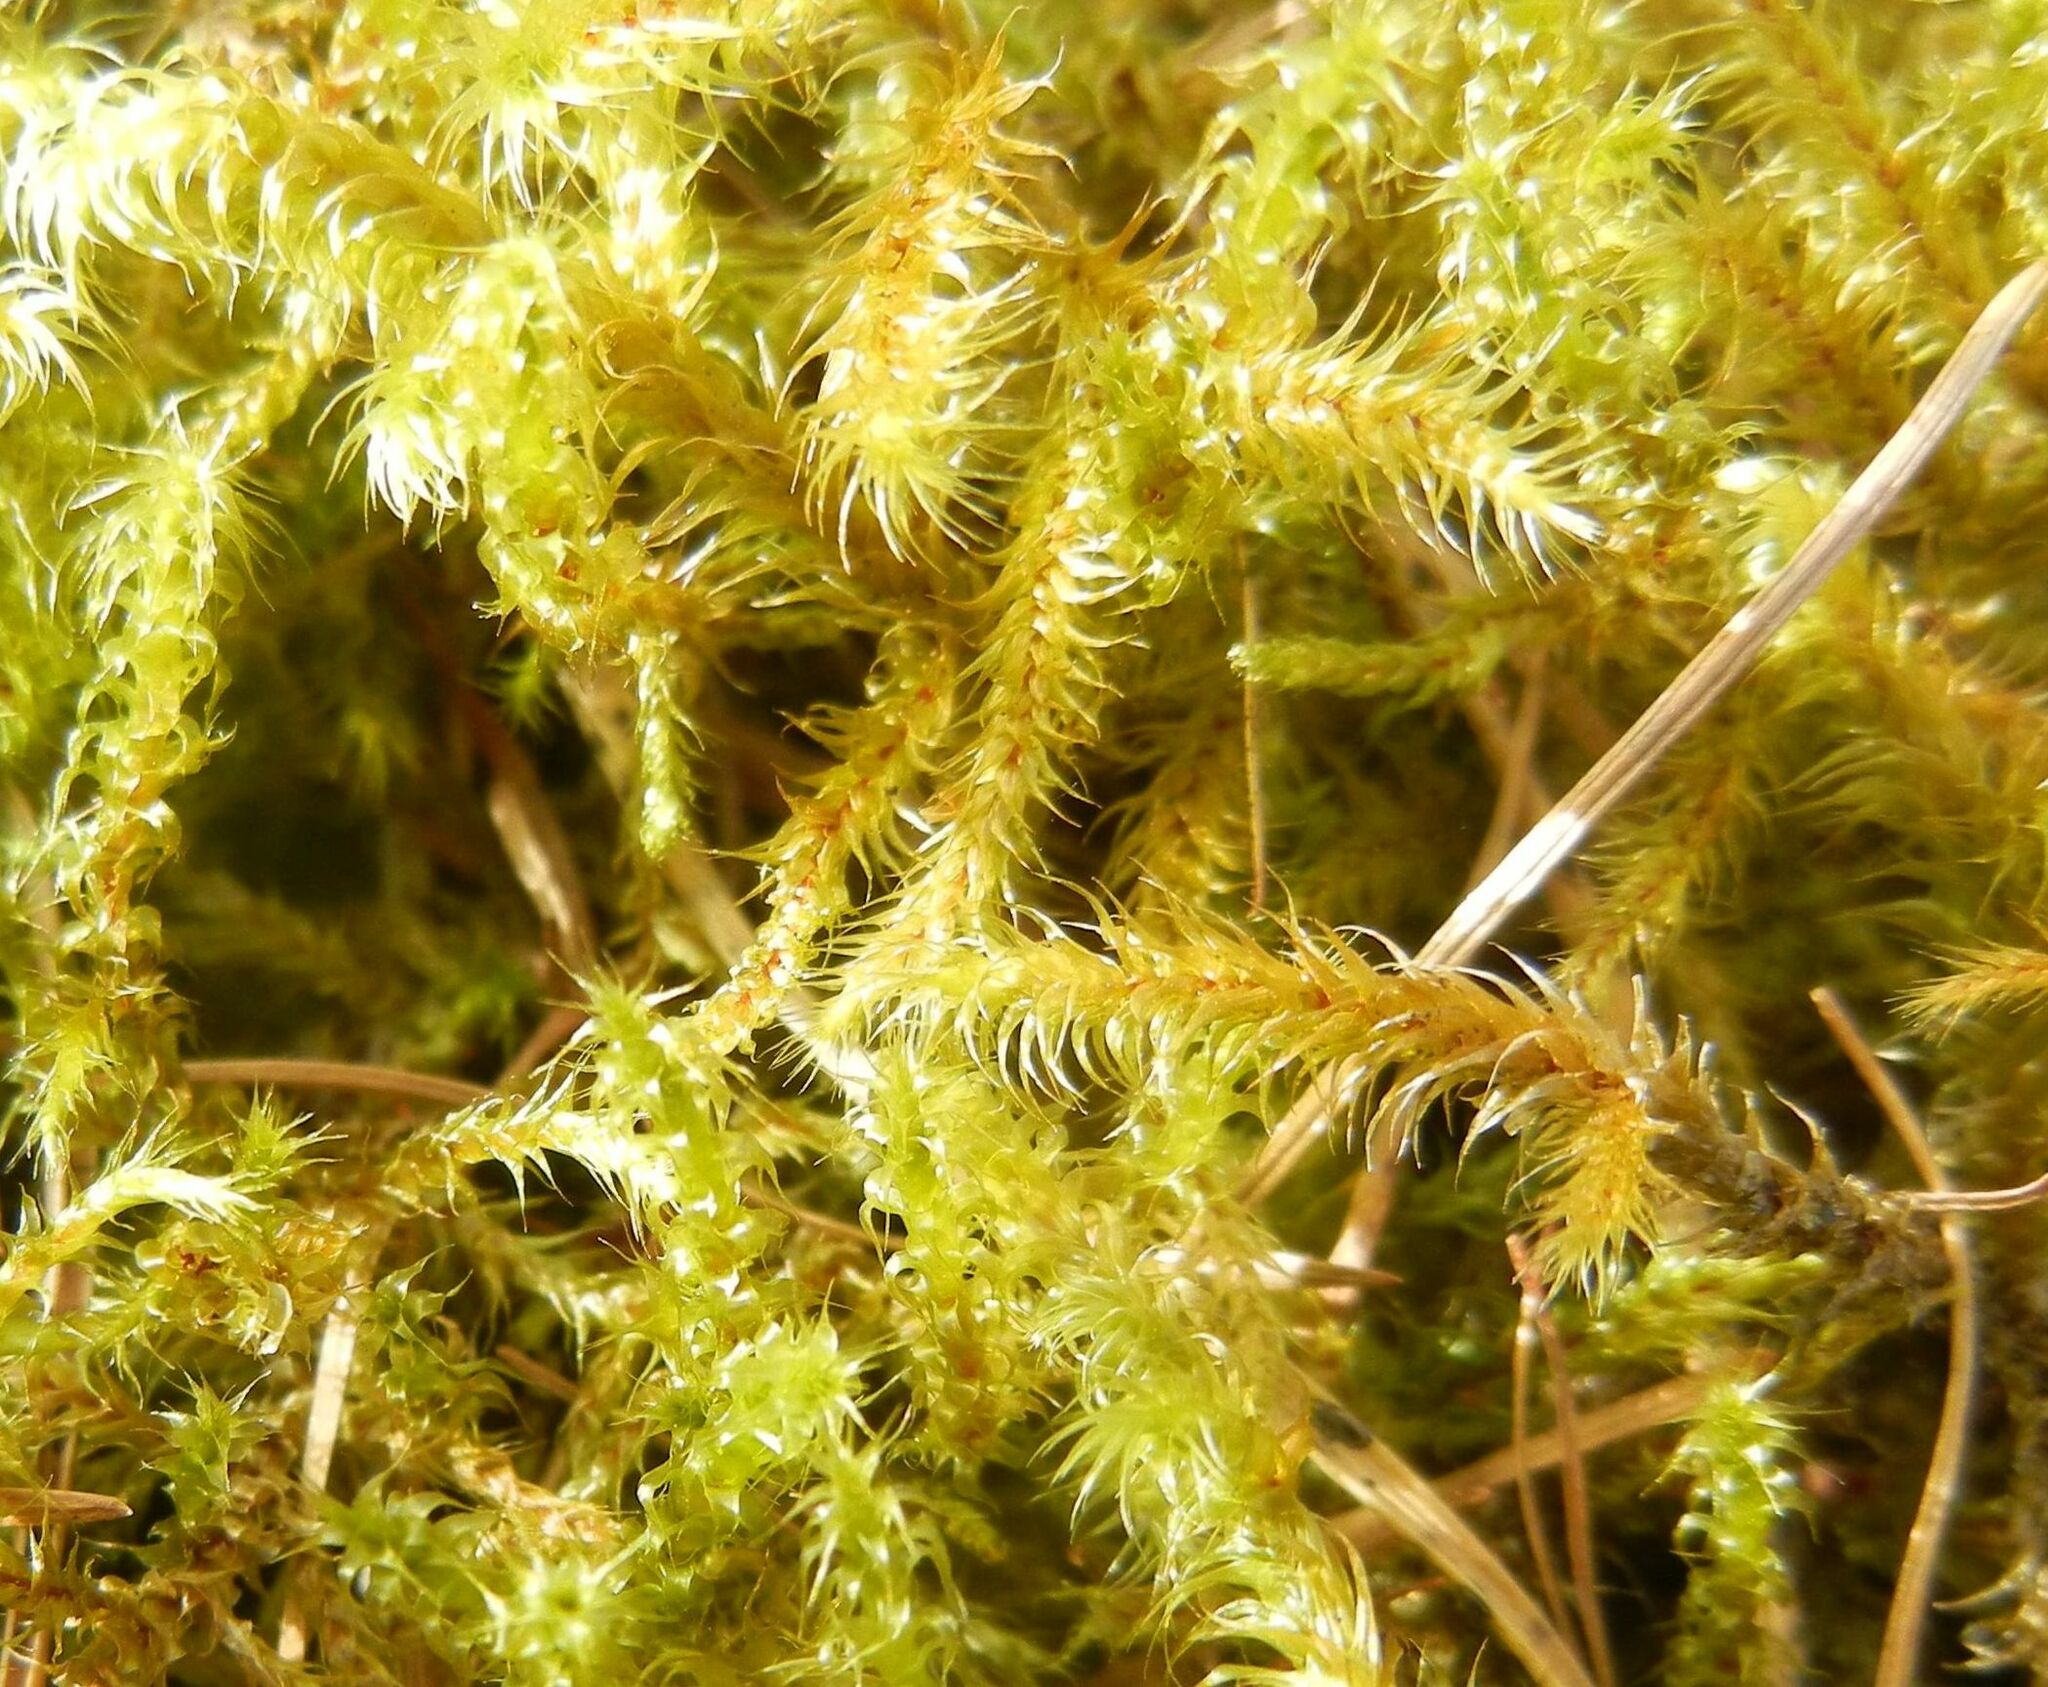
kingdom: Plantae
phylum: Bryophyta
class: Bryopsida
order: Hypnales
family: Hylocomiaceae
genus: Rhytidiadelphus
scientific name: Rhytidiadelphus loreus
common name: Lanky moss
